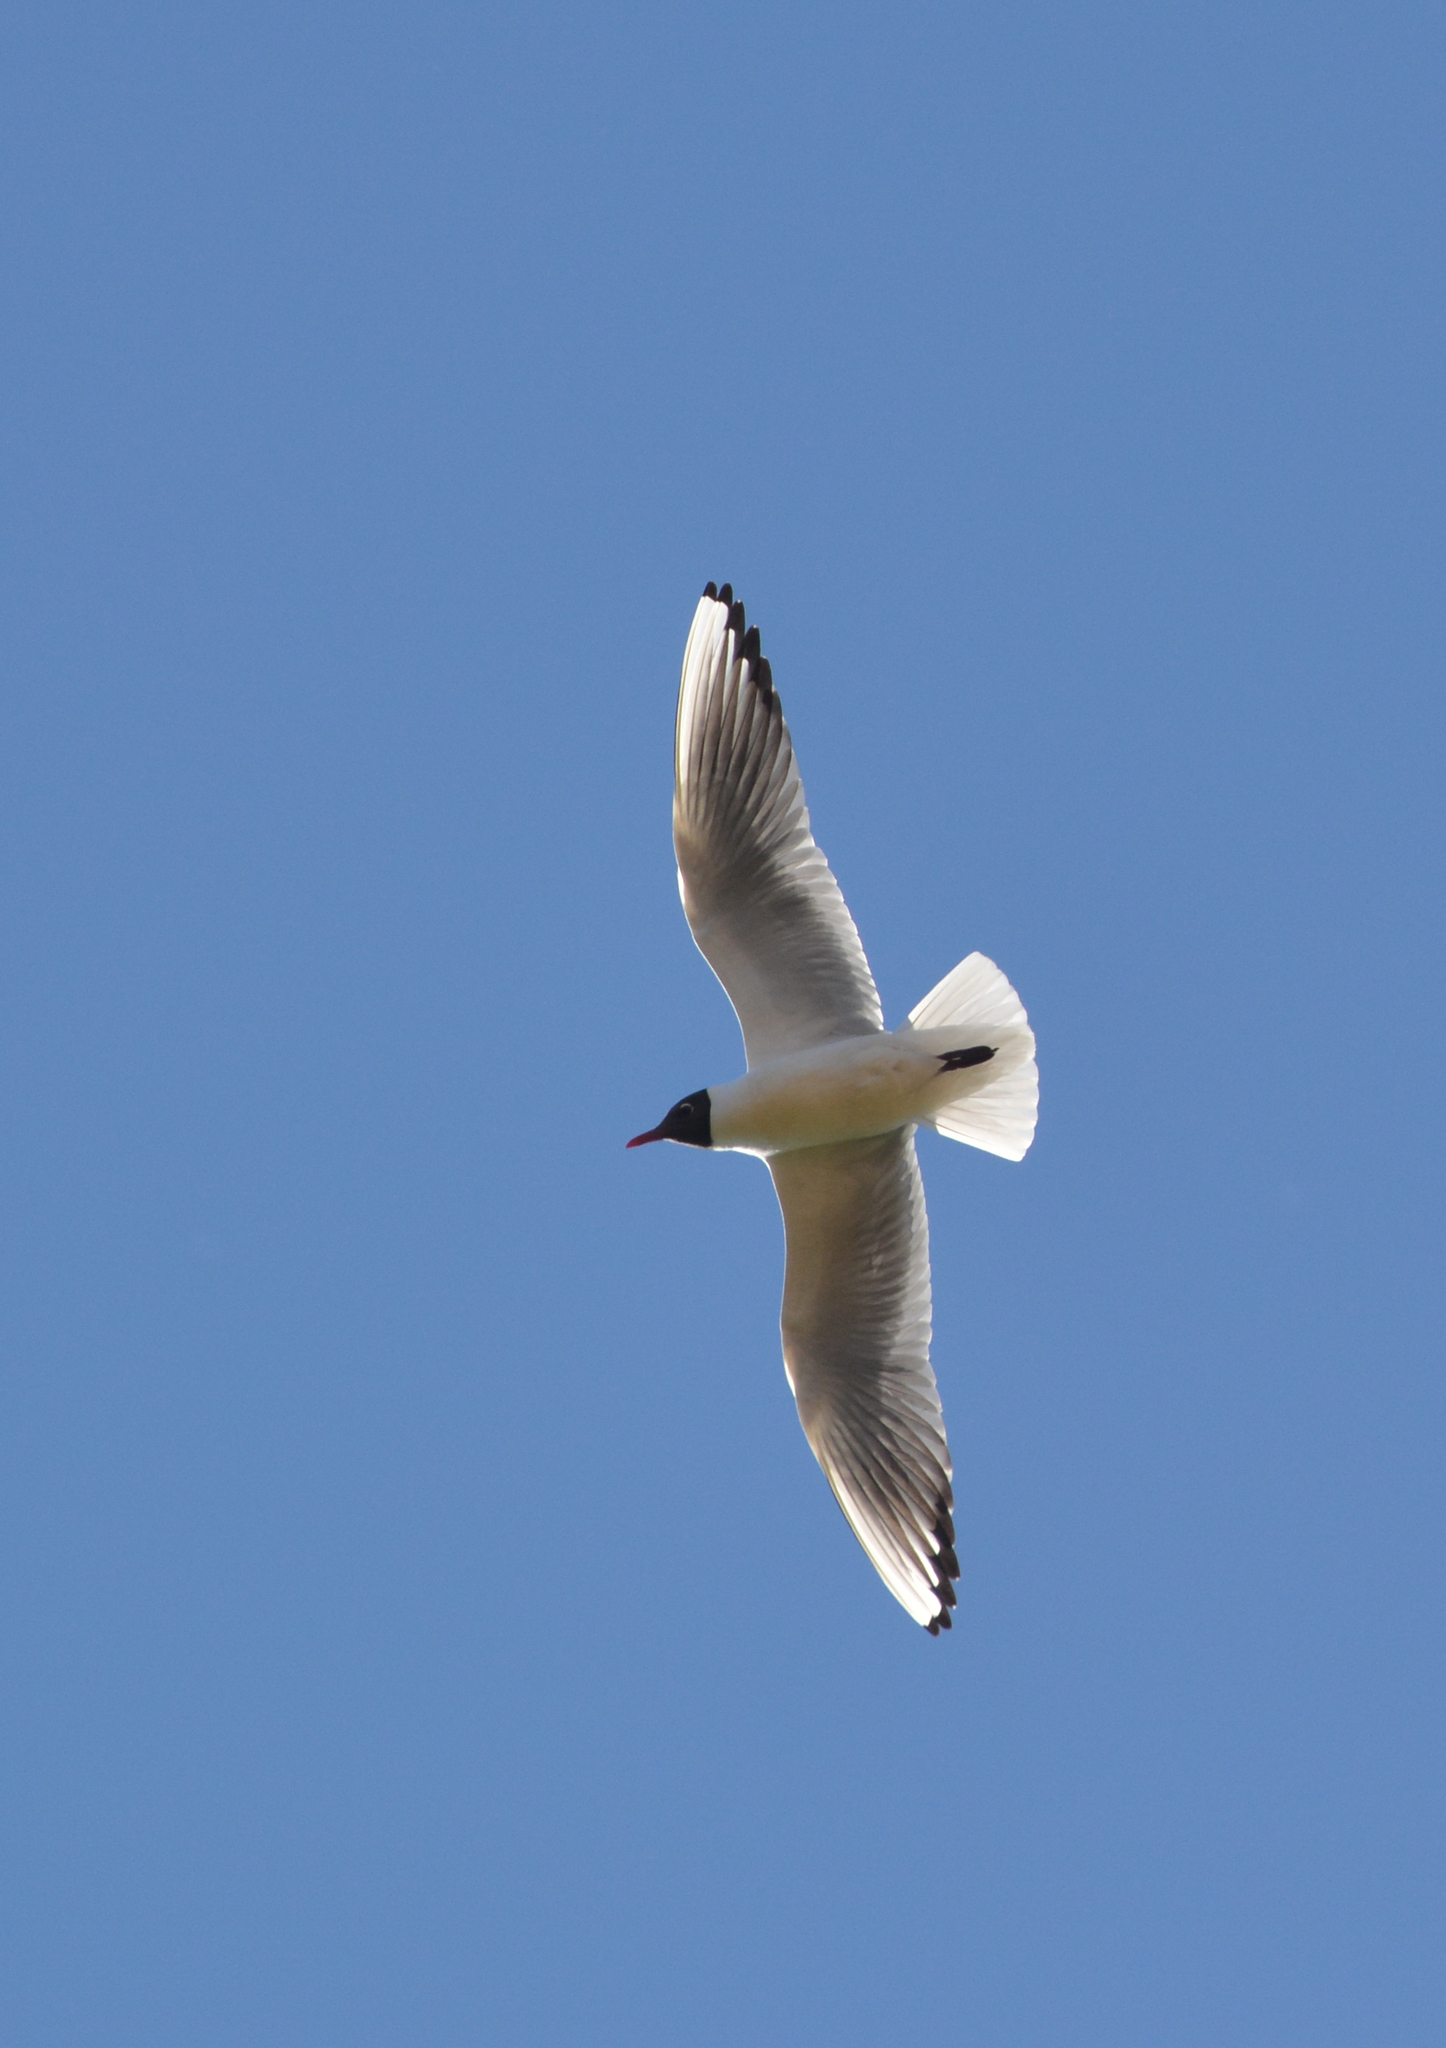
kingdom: Animalia
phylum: Chordata
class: Aves
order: Charadriiformes
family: Laridae
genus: Chroicocephalus
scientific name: Chroicocephalus ridibundus
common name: Black-headed gull
